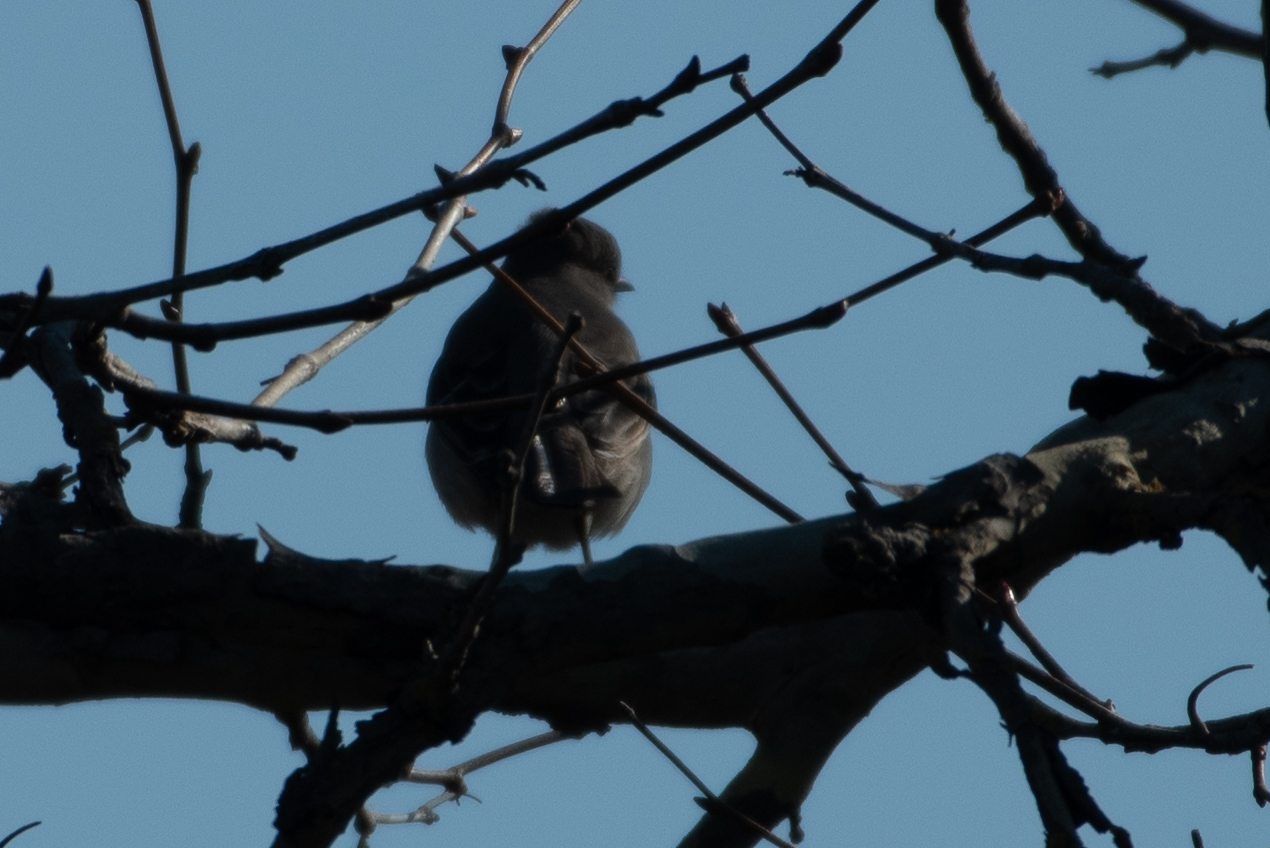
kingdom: Animalia
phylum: Chordata
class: Aves
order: Passeriformes
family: Mimidae
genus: Mimus
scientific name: Mimus polyglottos
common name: Northern mockingbird
